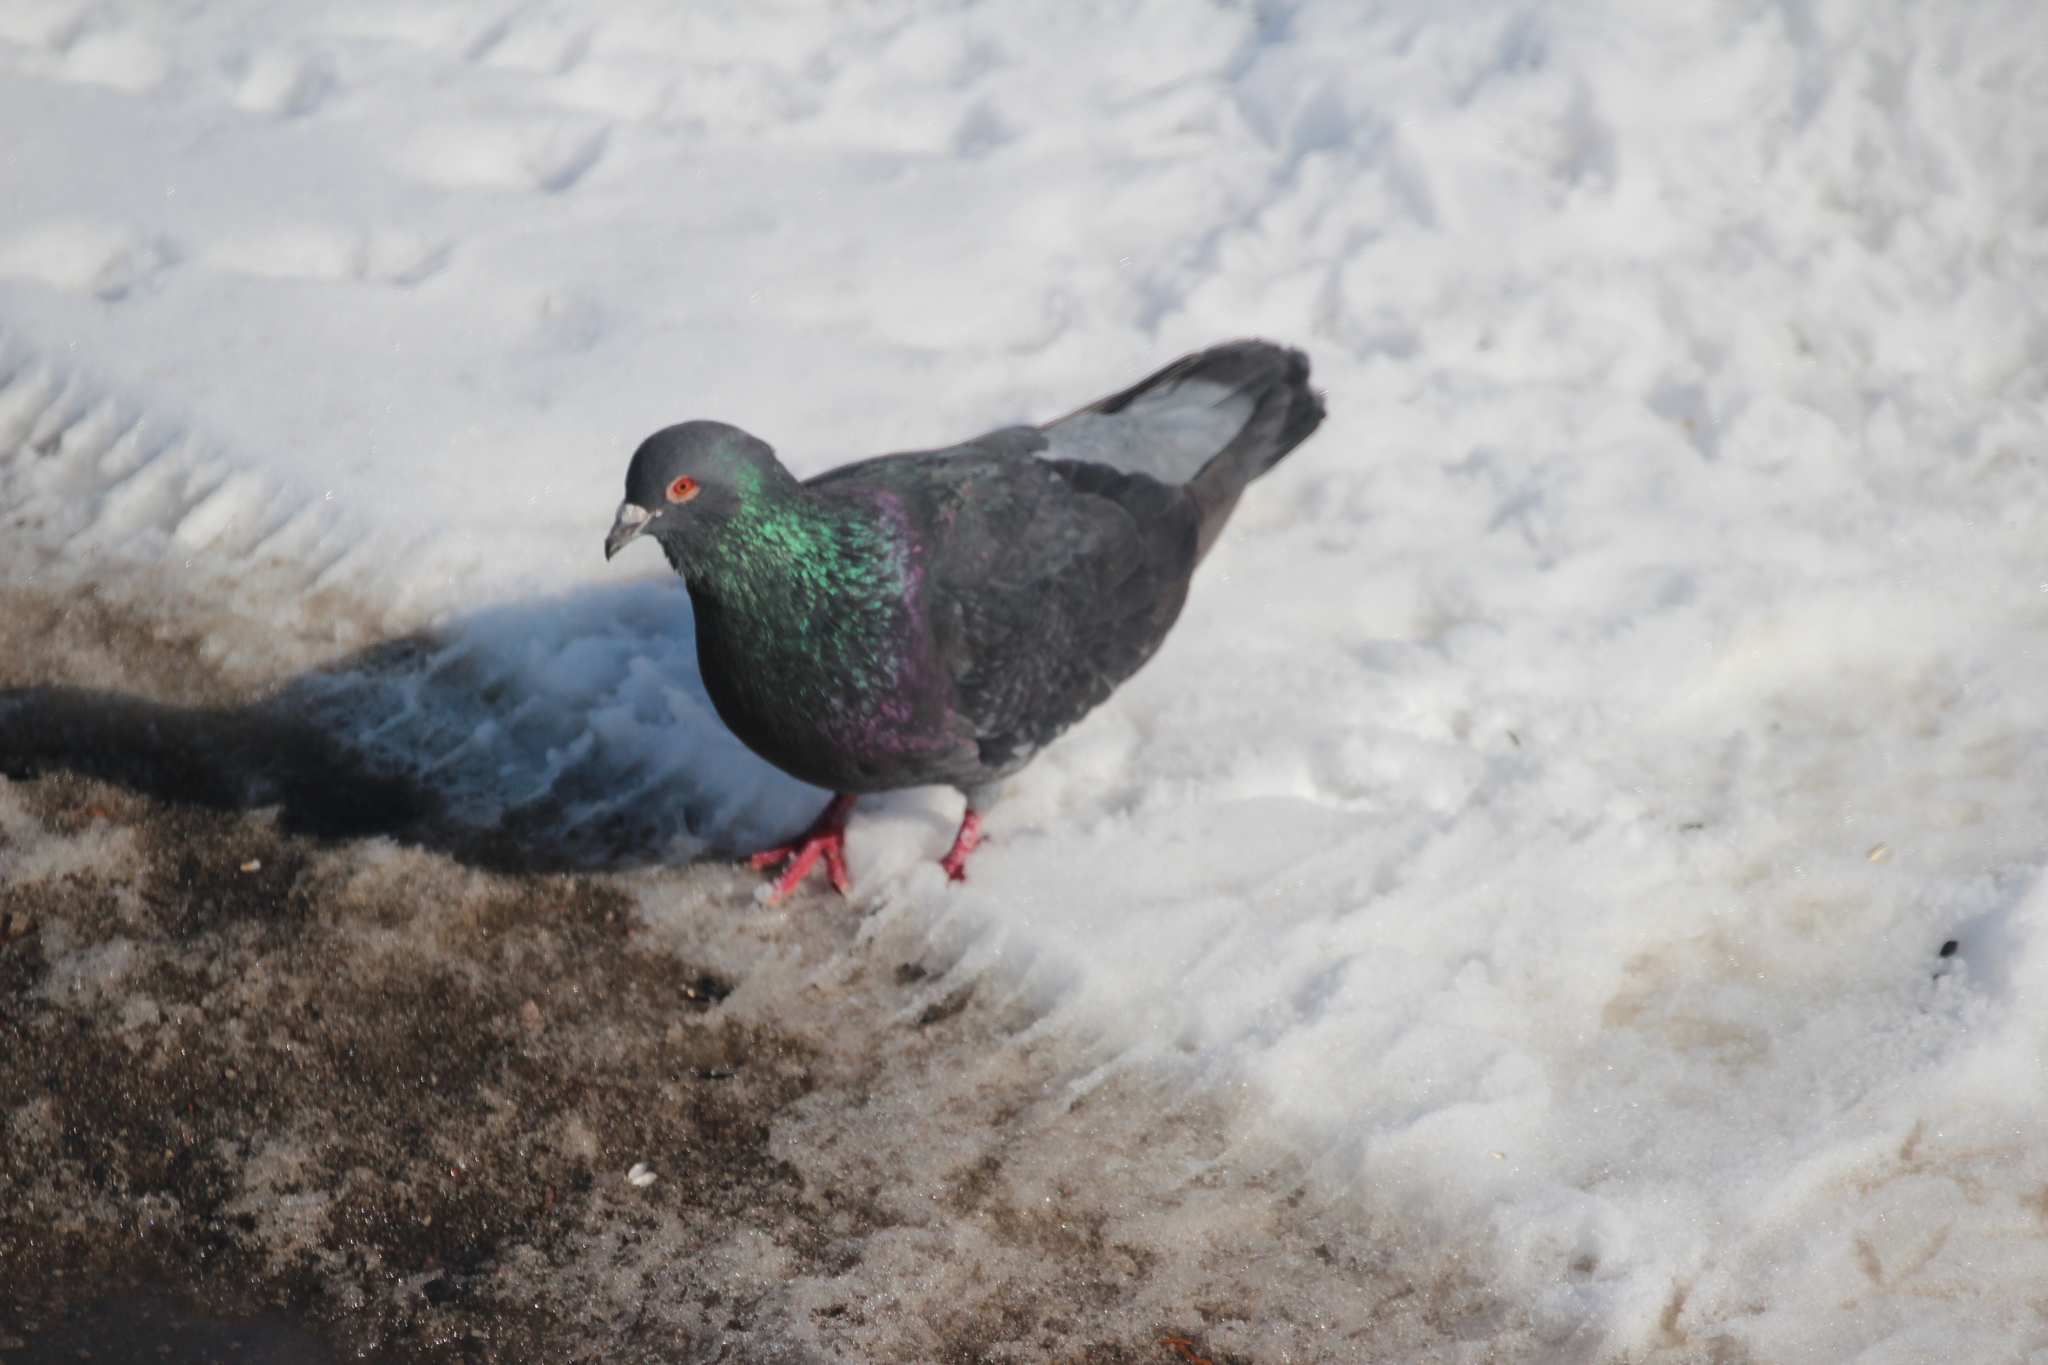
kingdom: Animalia
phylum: Chordata
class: Aves
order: Columbiformes
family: Columbidae
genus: Columba
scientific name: Columba livia
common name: Rock pigeon
